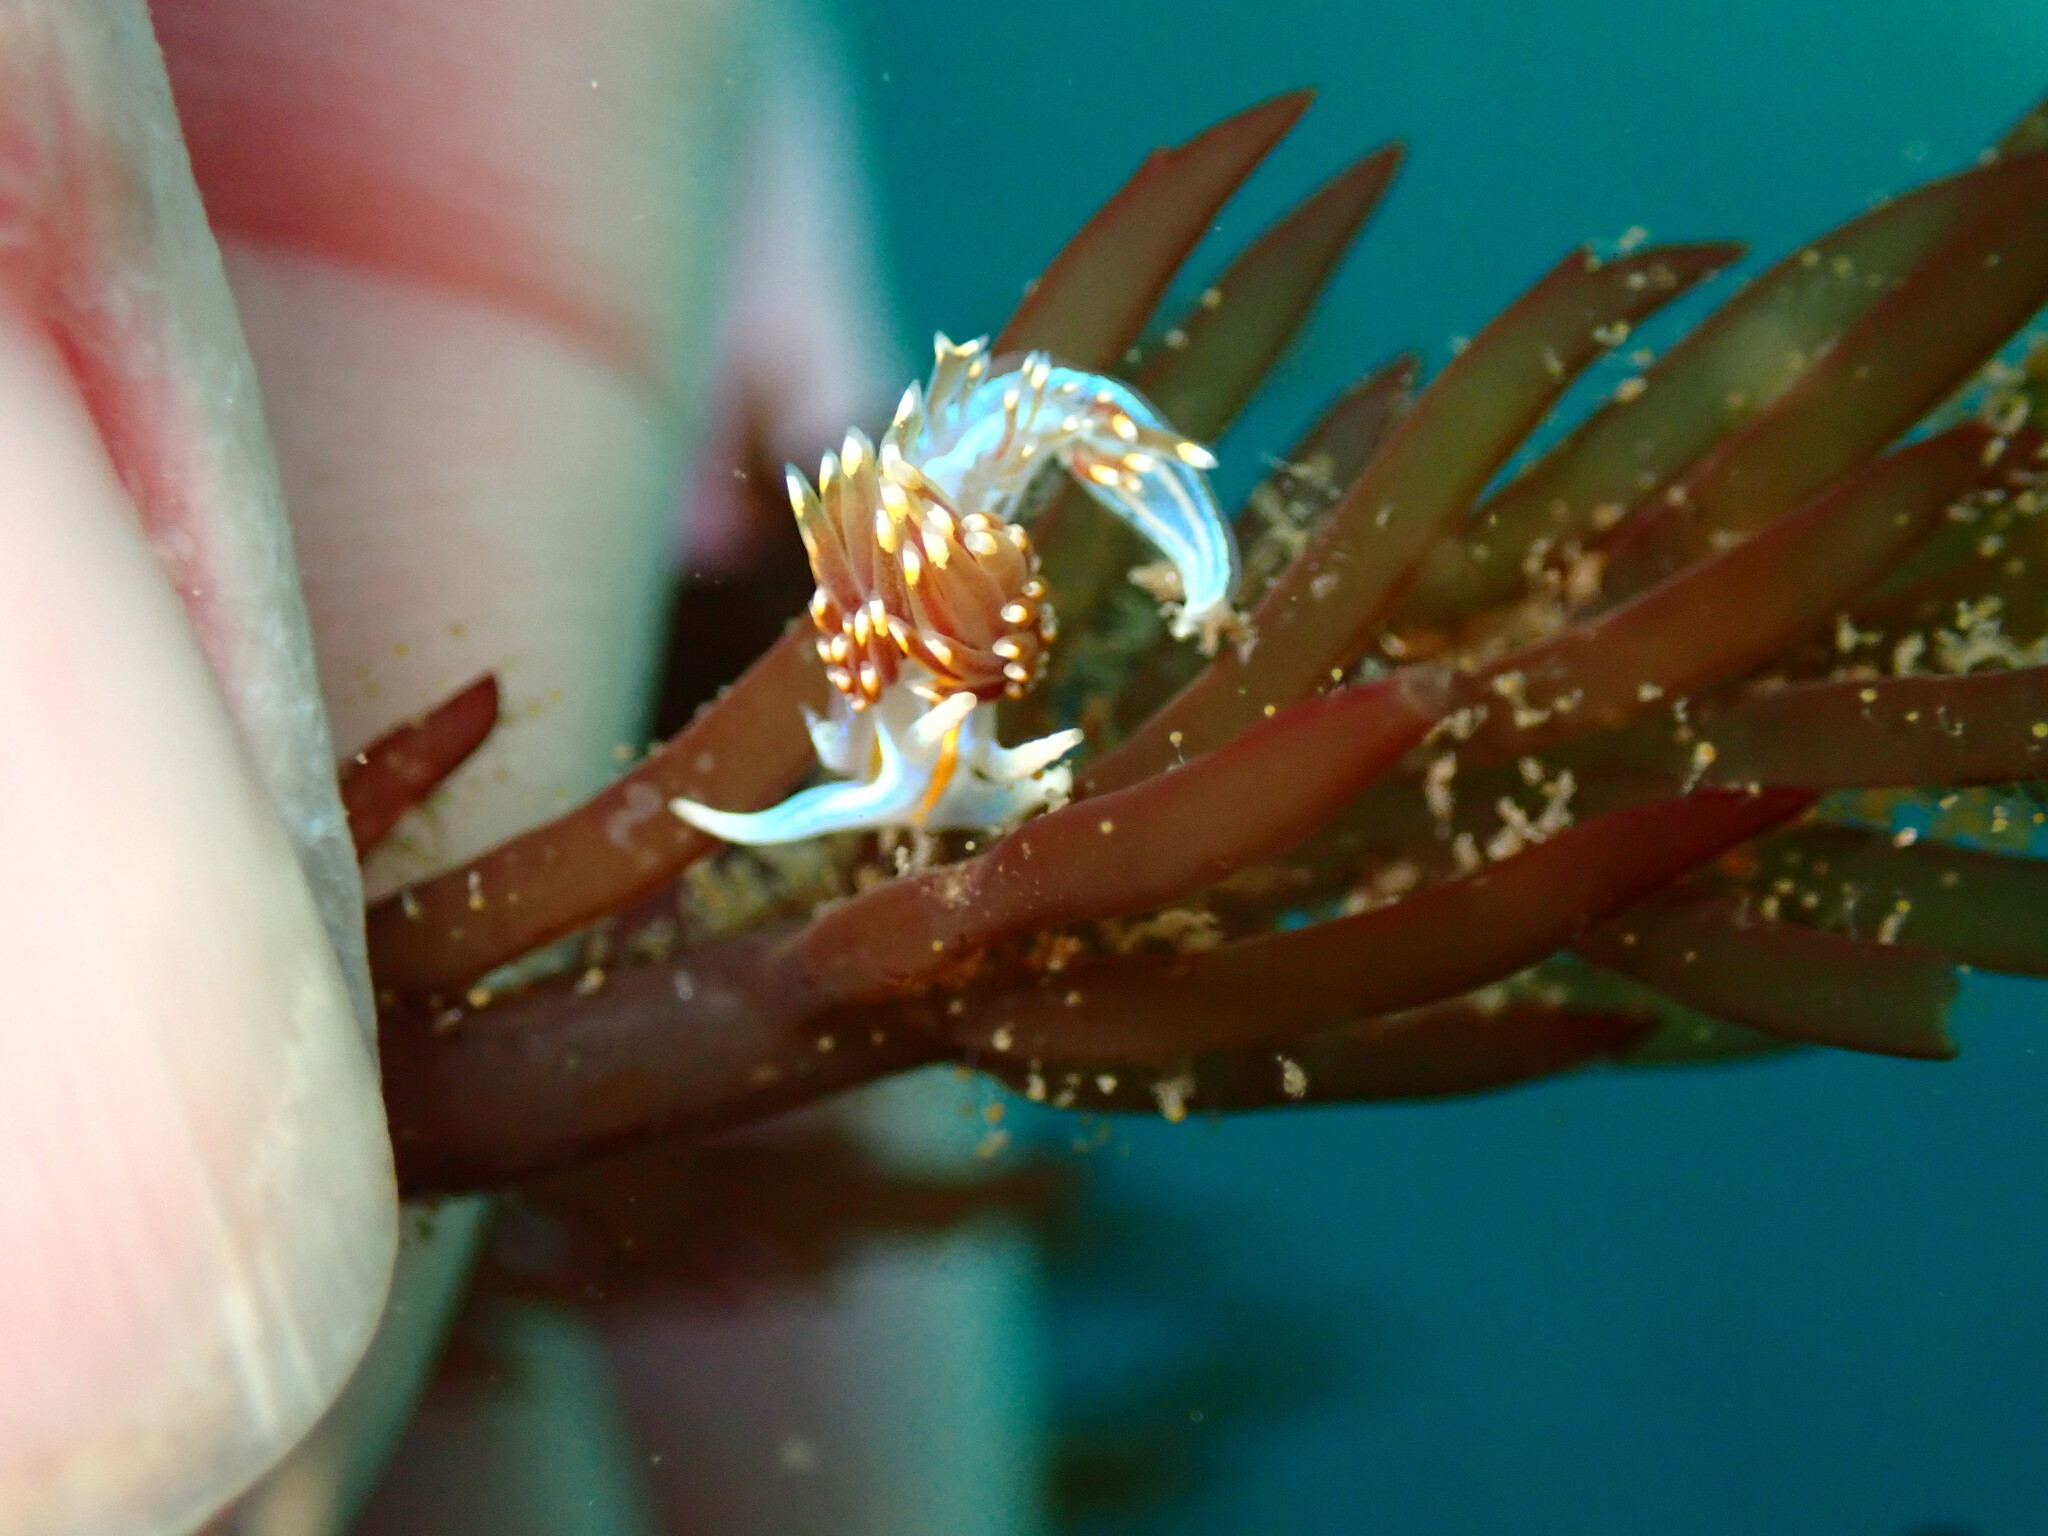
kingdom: Animalia
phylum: Mollusca
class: Gastropoda
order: Nudibranchia
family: Myrrhinidae
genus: Hermissenda
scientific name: Hermissenda opalescens
